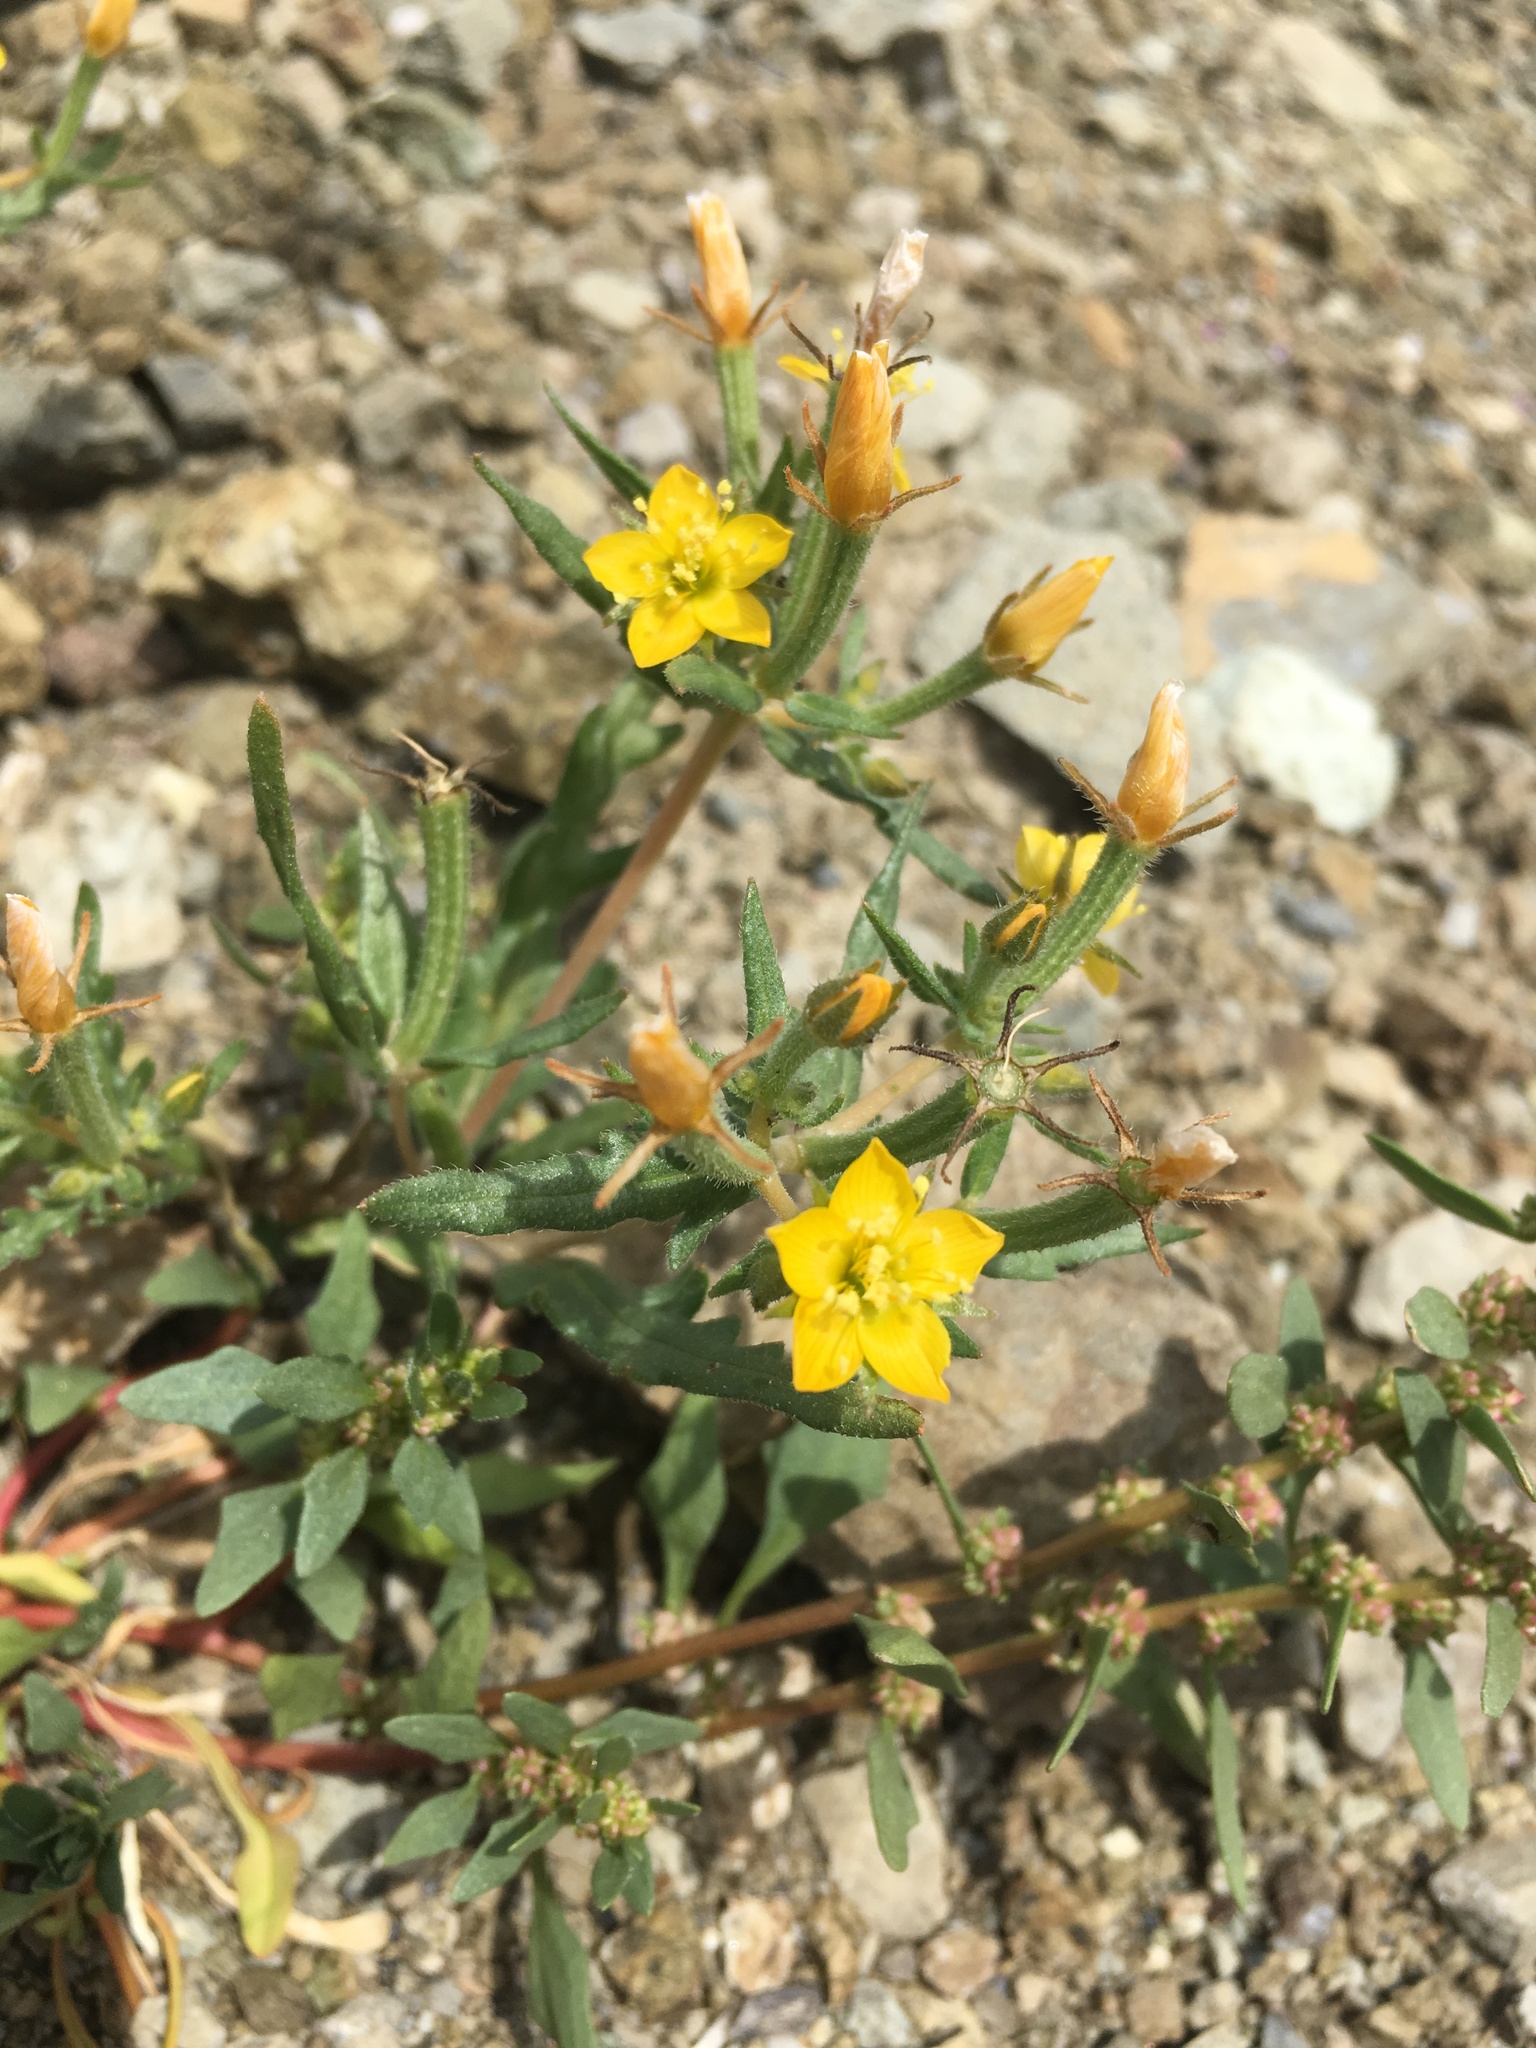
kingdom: Plantae
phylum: Tracheophyta
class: Magnoliopsida
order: Cornales
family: Loasaceae
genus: Mentzelia
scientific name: Mentzelia affinis
